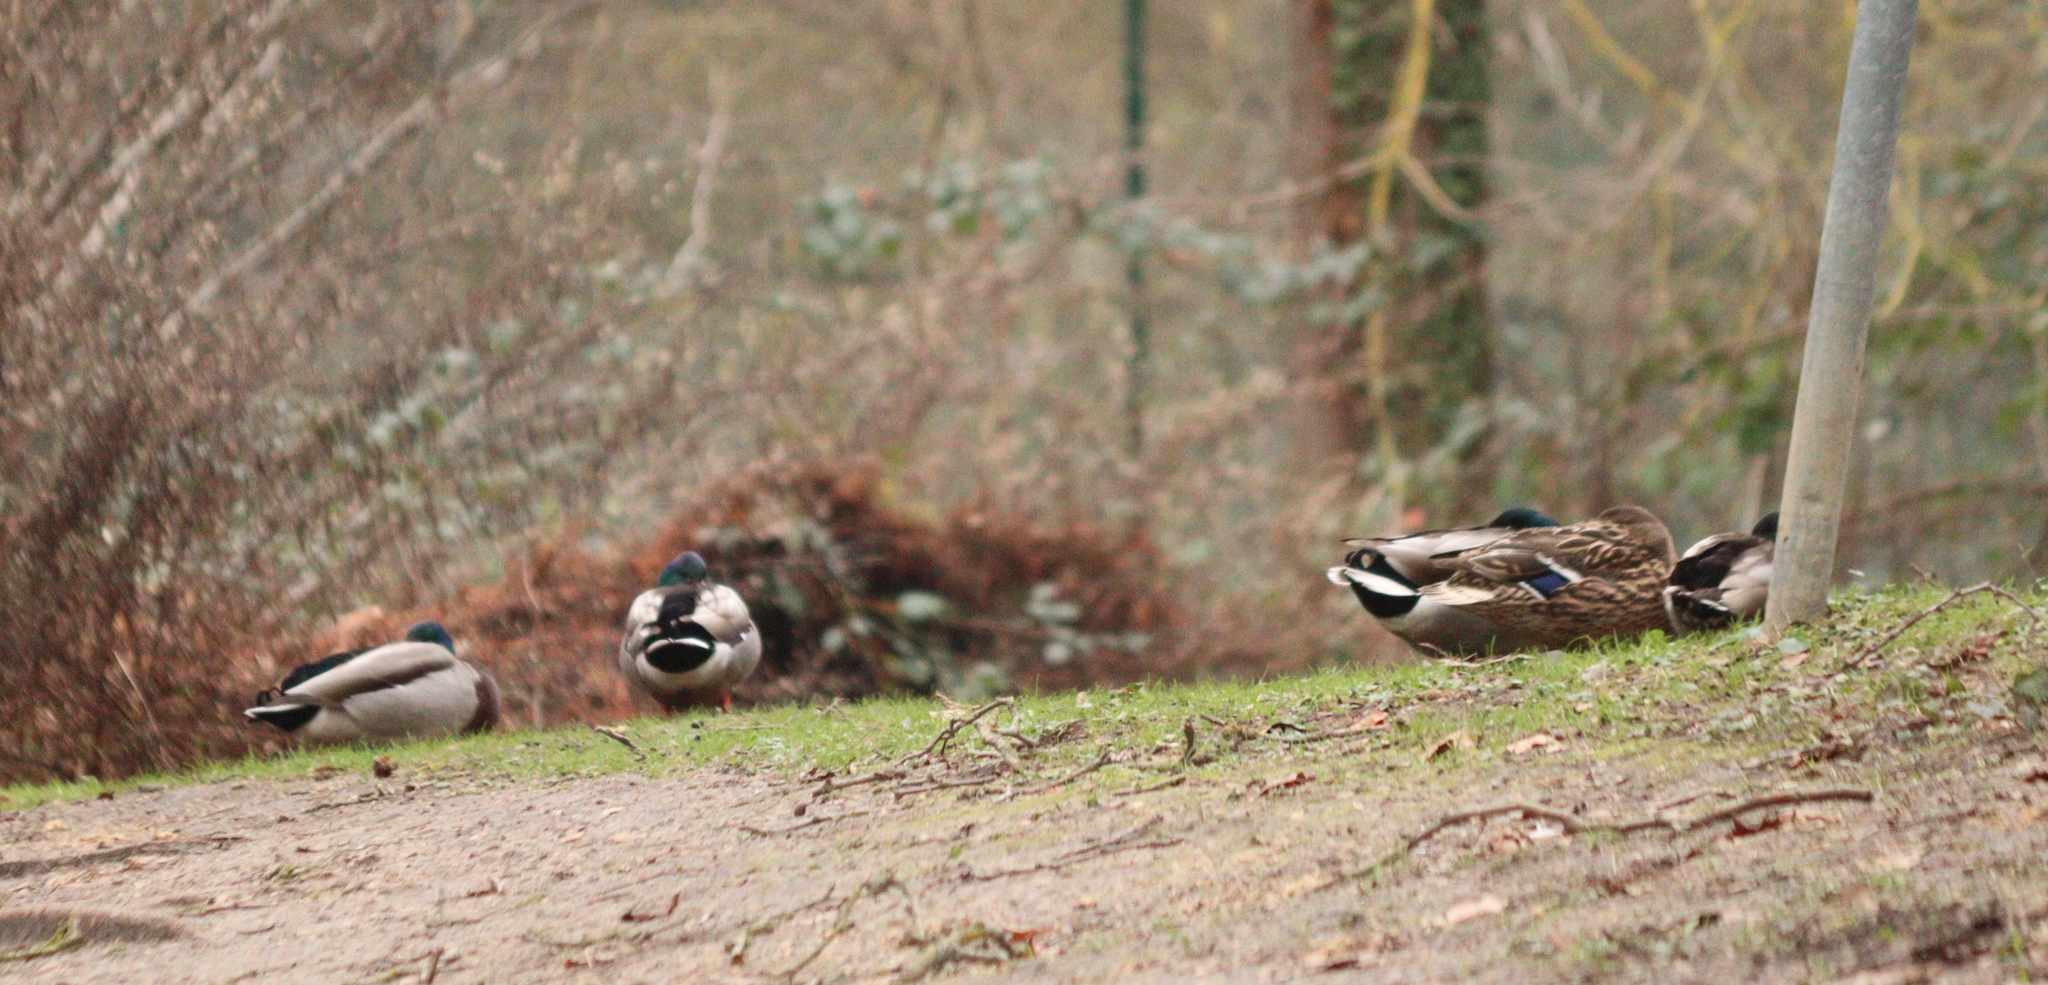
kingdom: Animalia
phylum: Chordata
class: Aves
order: Anseriformes
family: Anatidae
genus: Anas
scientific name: Anas platyrhynchos
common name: Mallard
